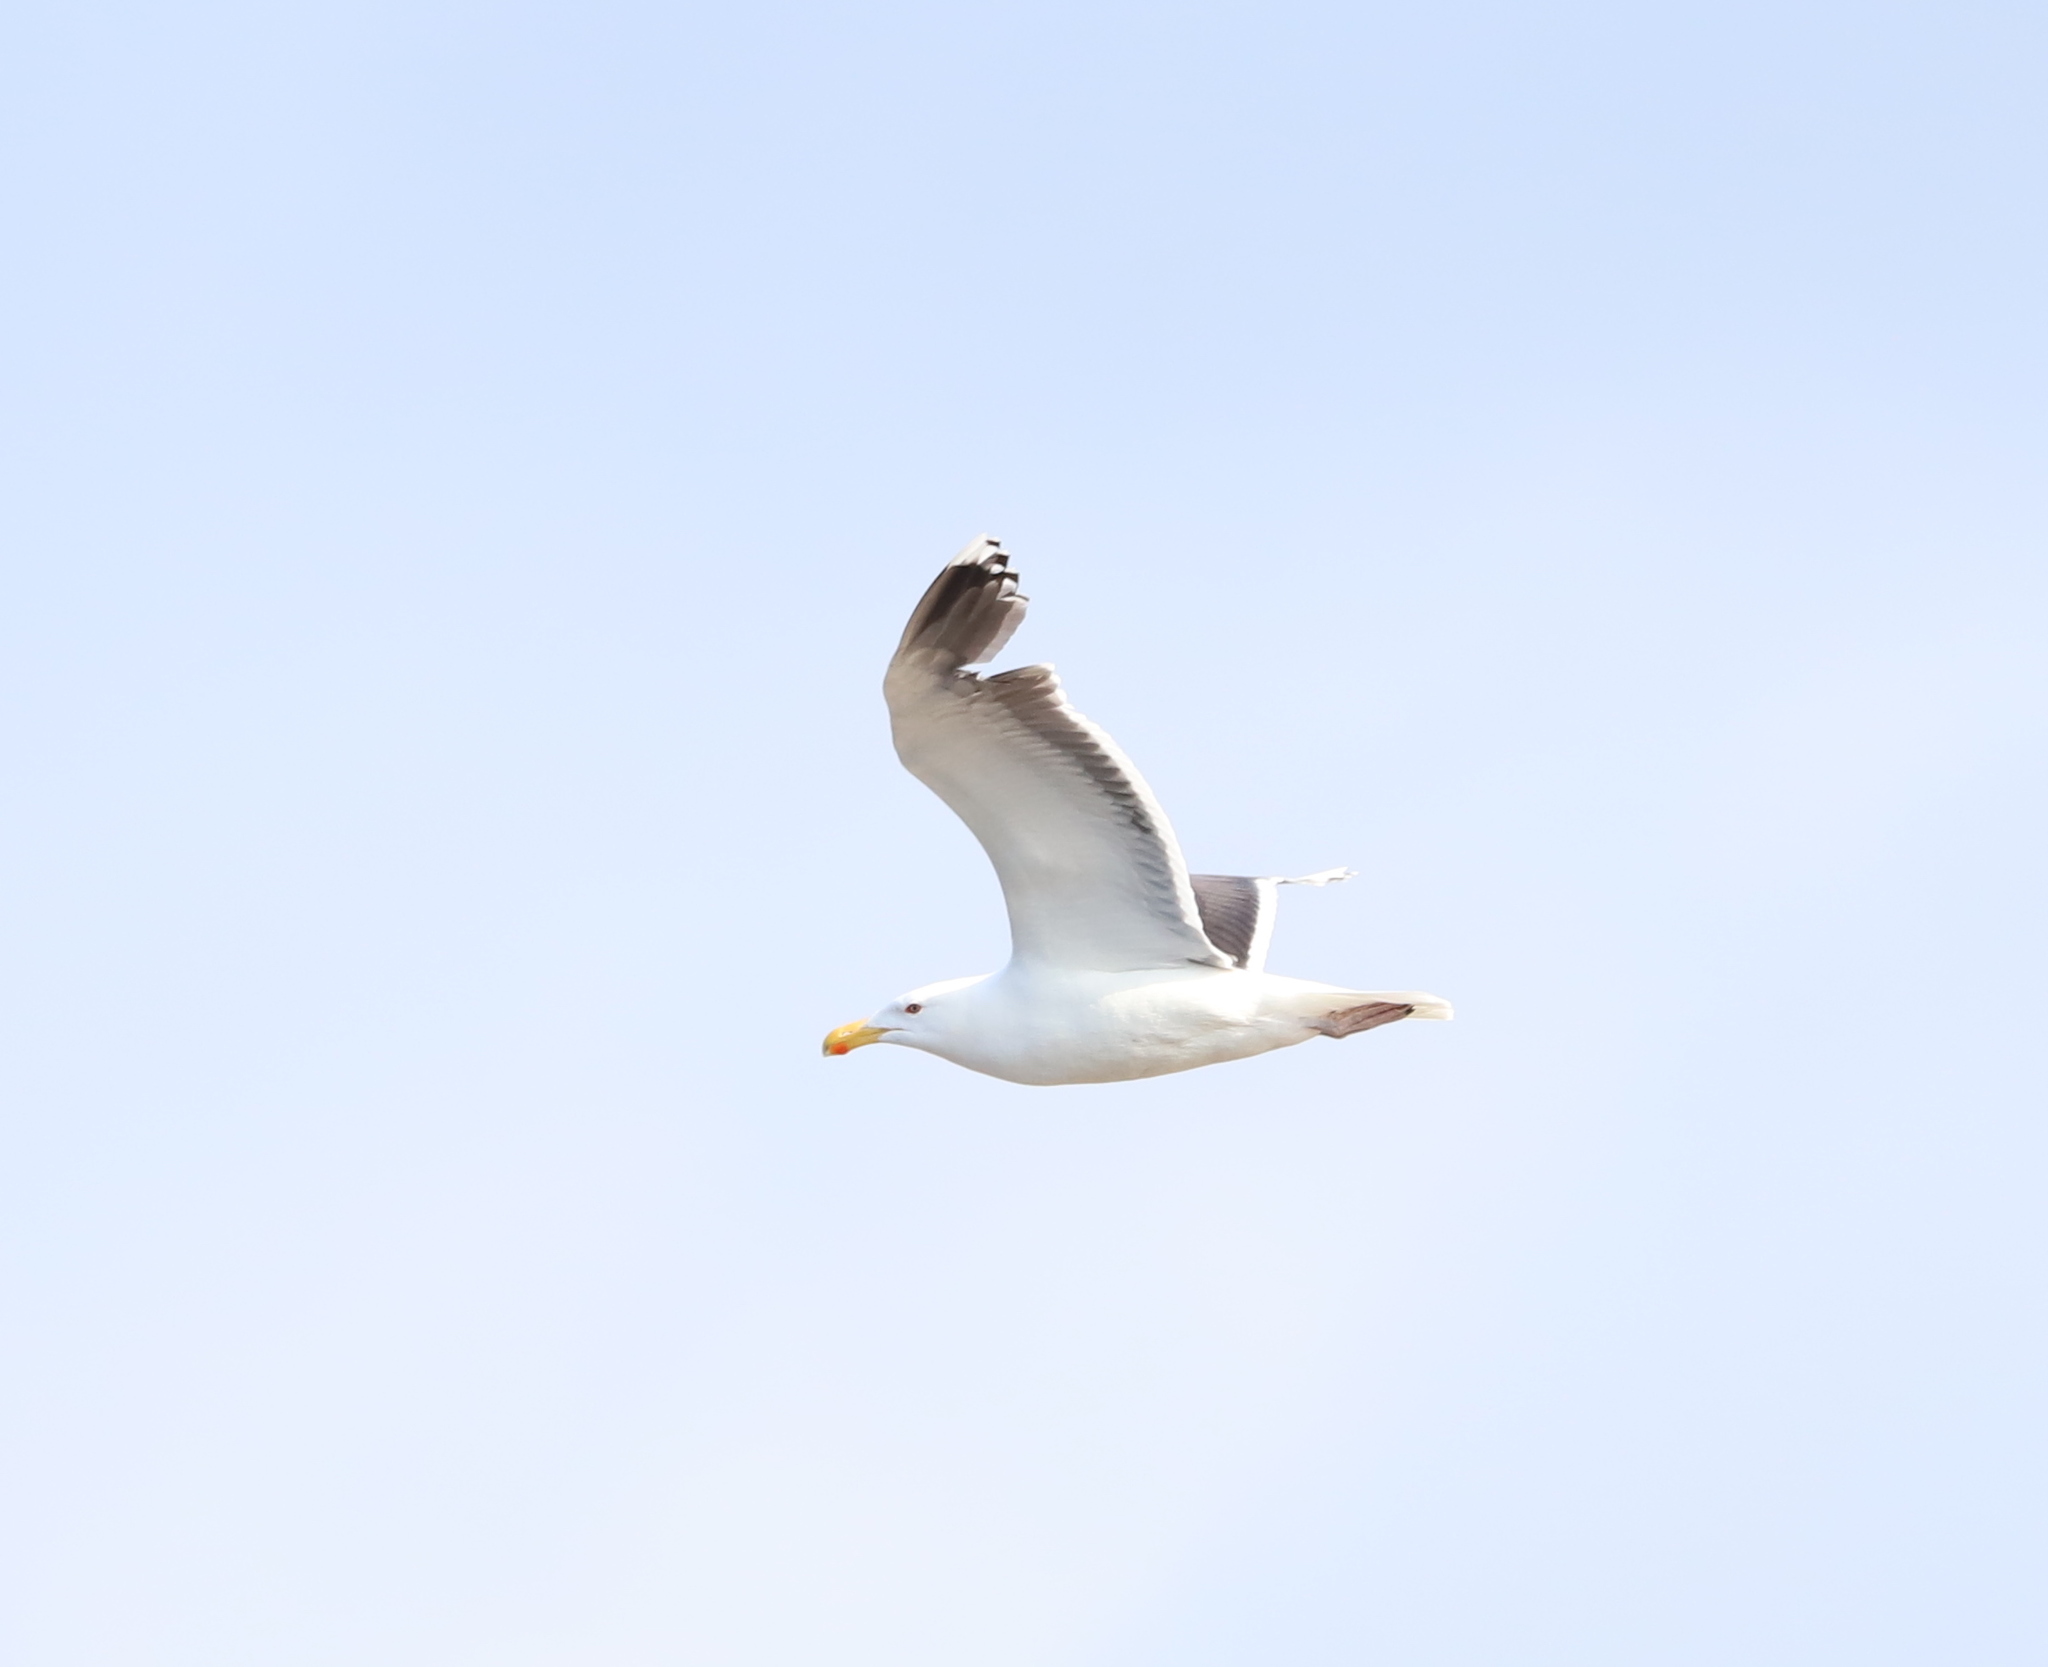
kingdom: Animalia
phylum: Chordata
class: Aves
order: Charadriiformes
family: Laridae
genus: Larus
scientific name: Larus marinus
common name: Great black-backed gull
